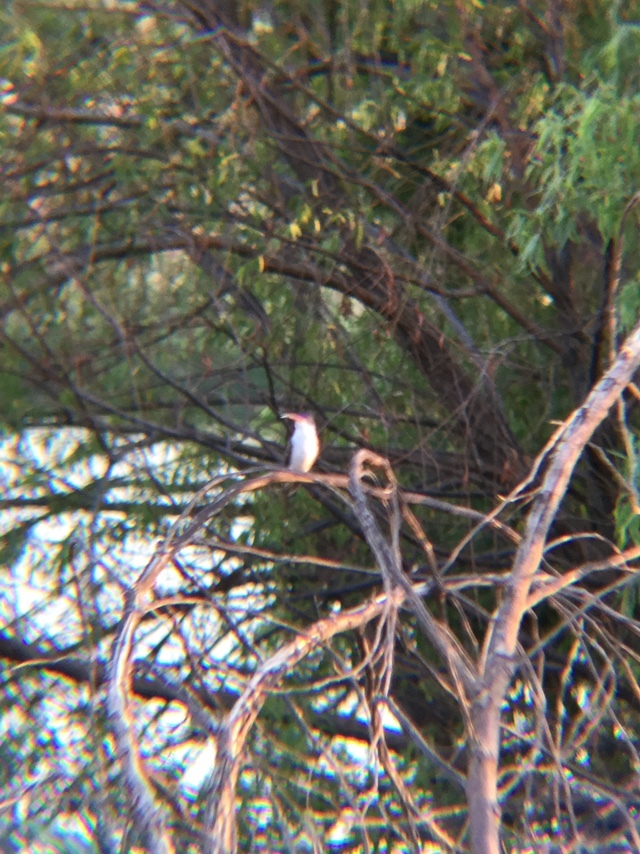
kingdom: Animalia
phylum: Chordata
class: Aves
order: Apodiformes
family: Trochilidae
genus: Leucolia
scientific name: Leucolia violiceps
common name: Violet-crowned hummingbird
